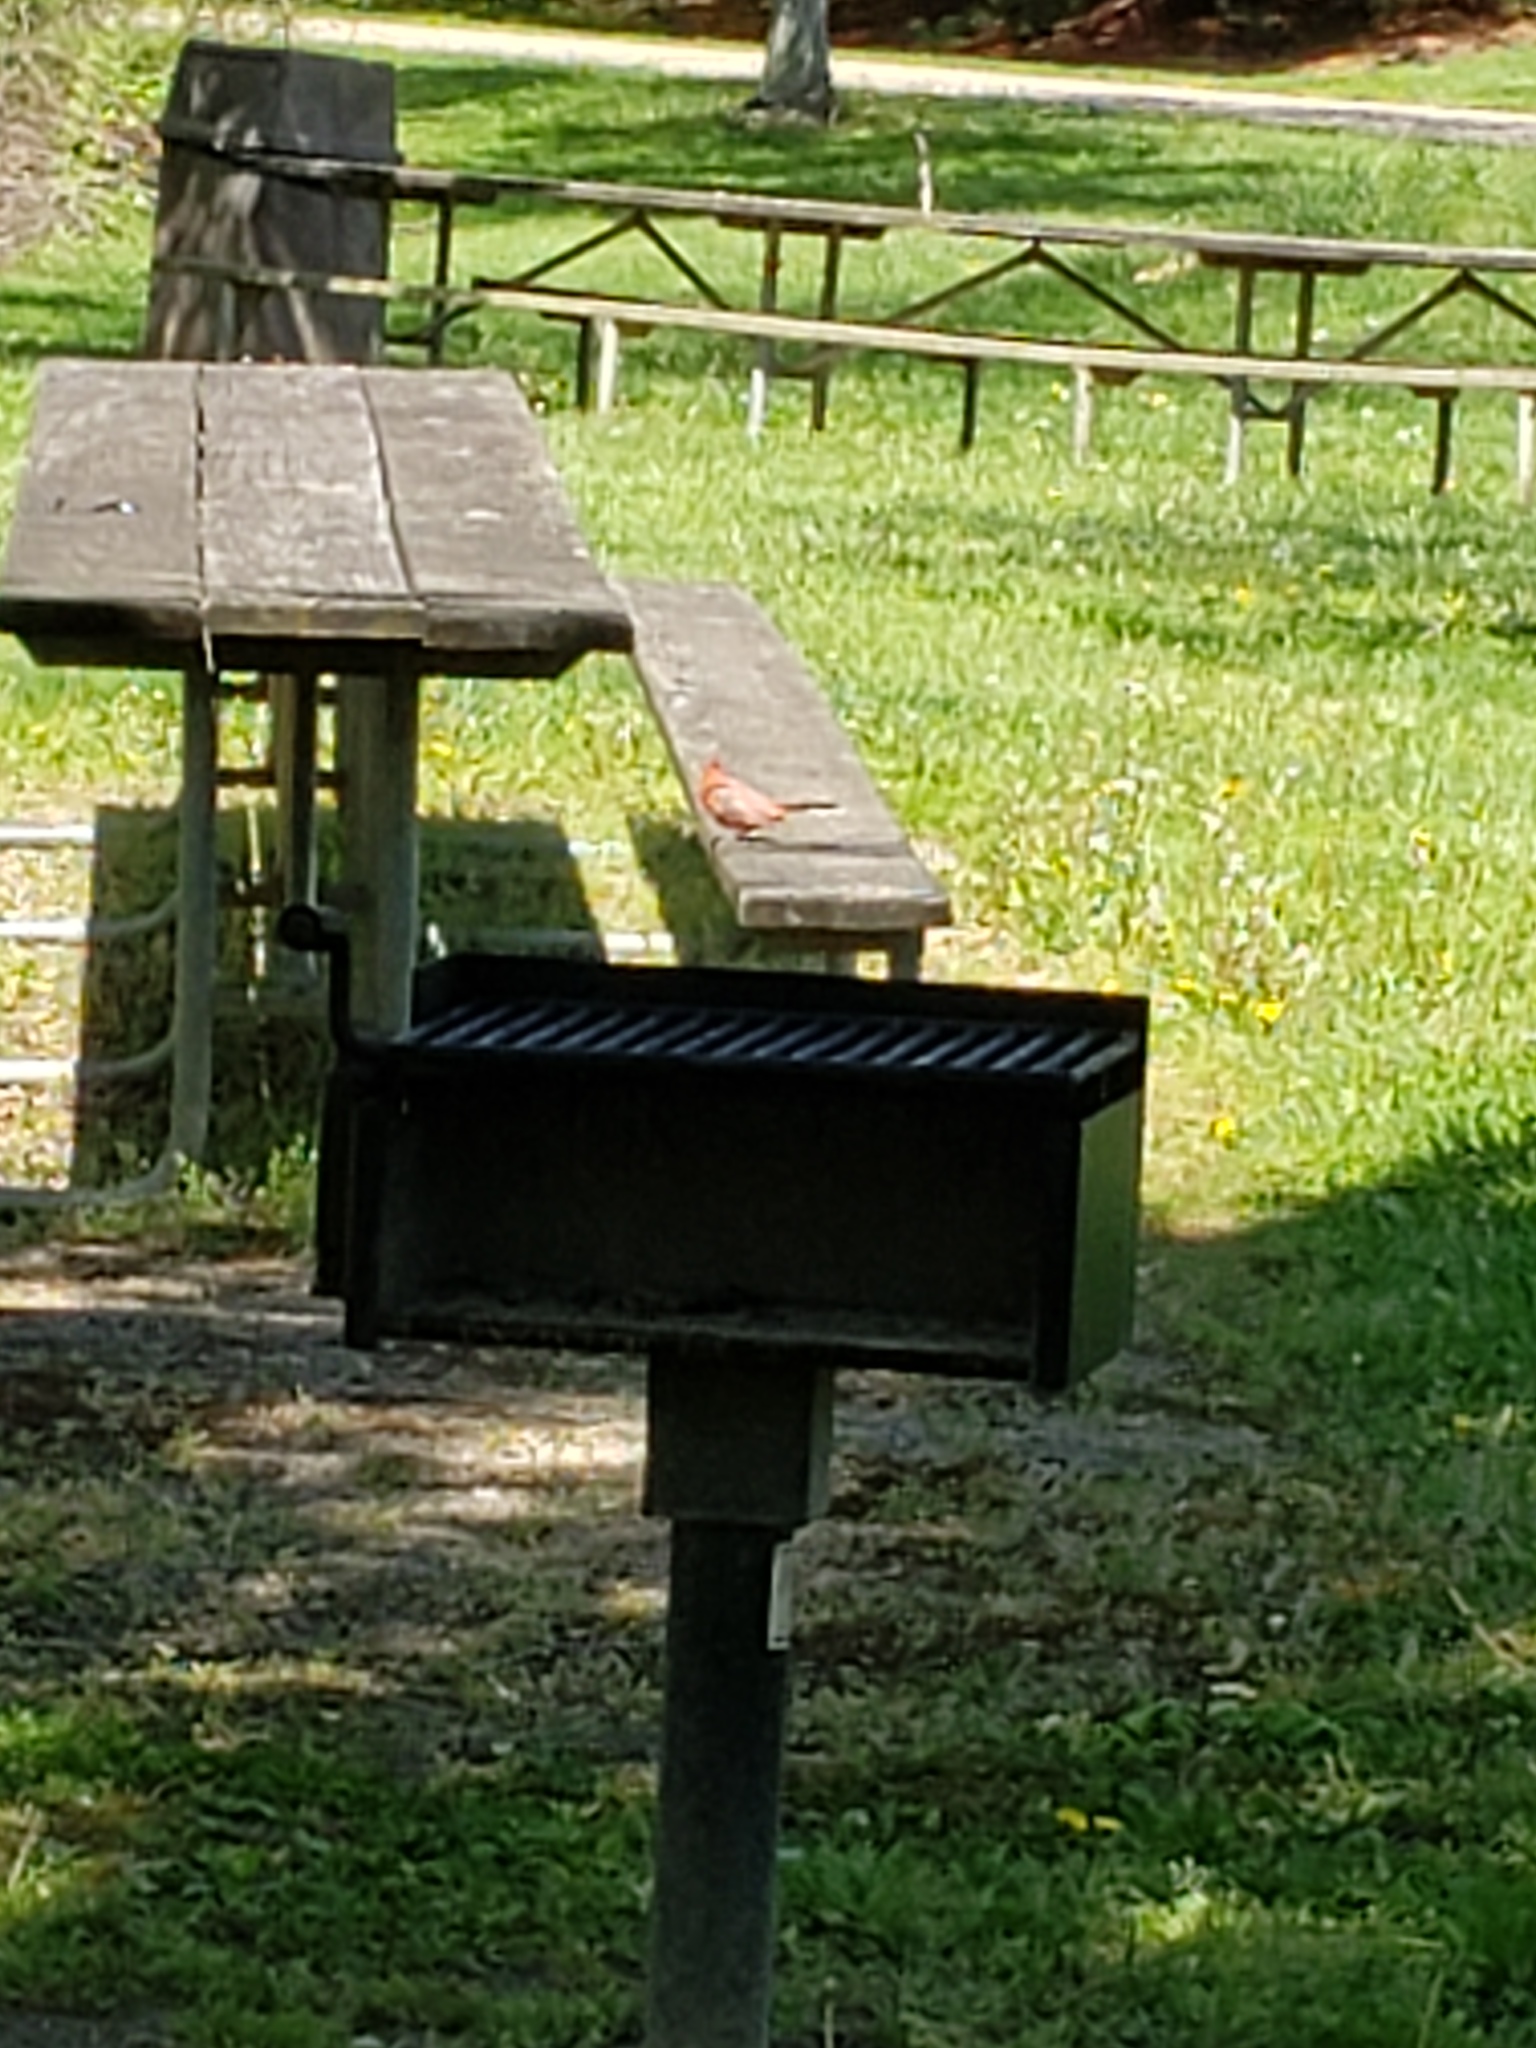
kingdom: Animalia
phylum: Chordata
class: Aves
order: Passeriformes
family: Cardinalidae
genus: Cardinalis
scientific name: Cardinalis cardinalis
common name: Northern cardinal
